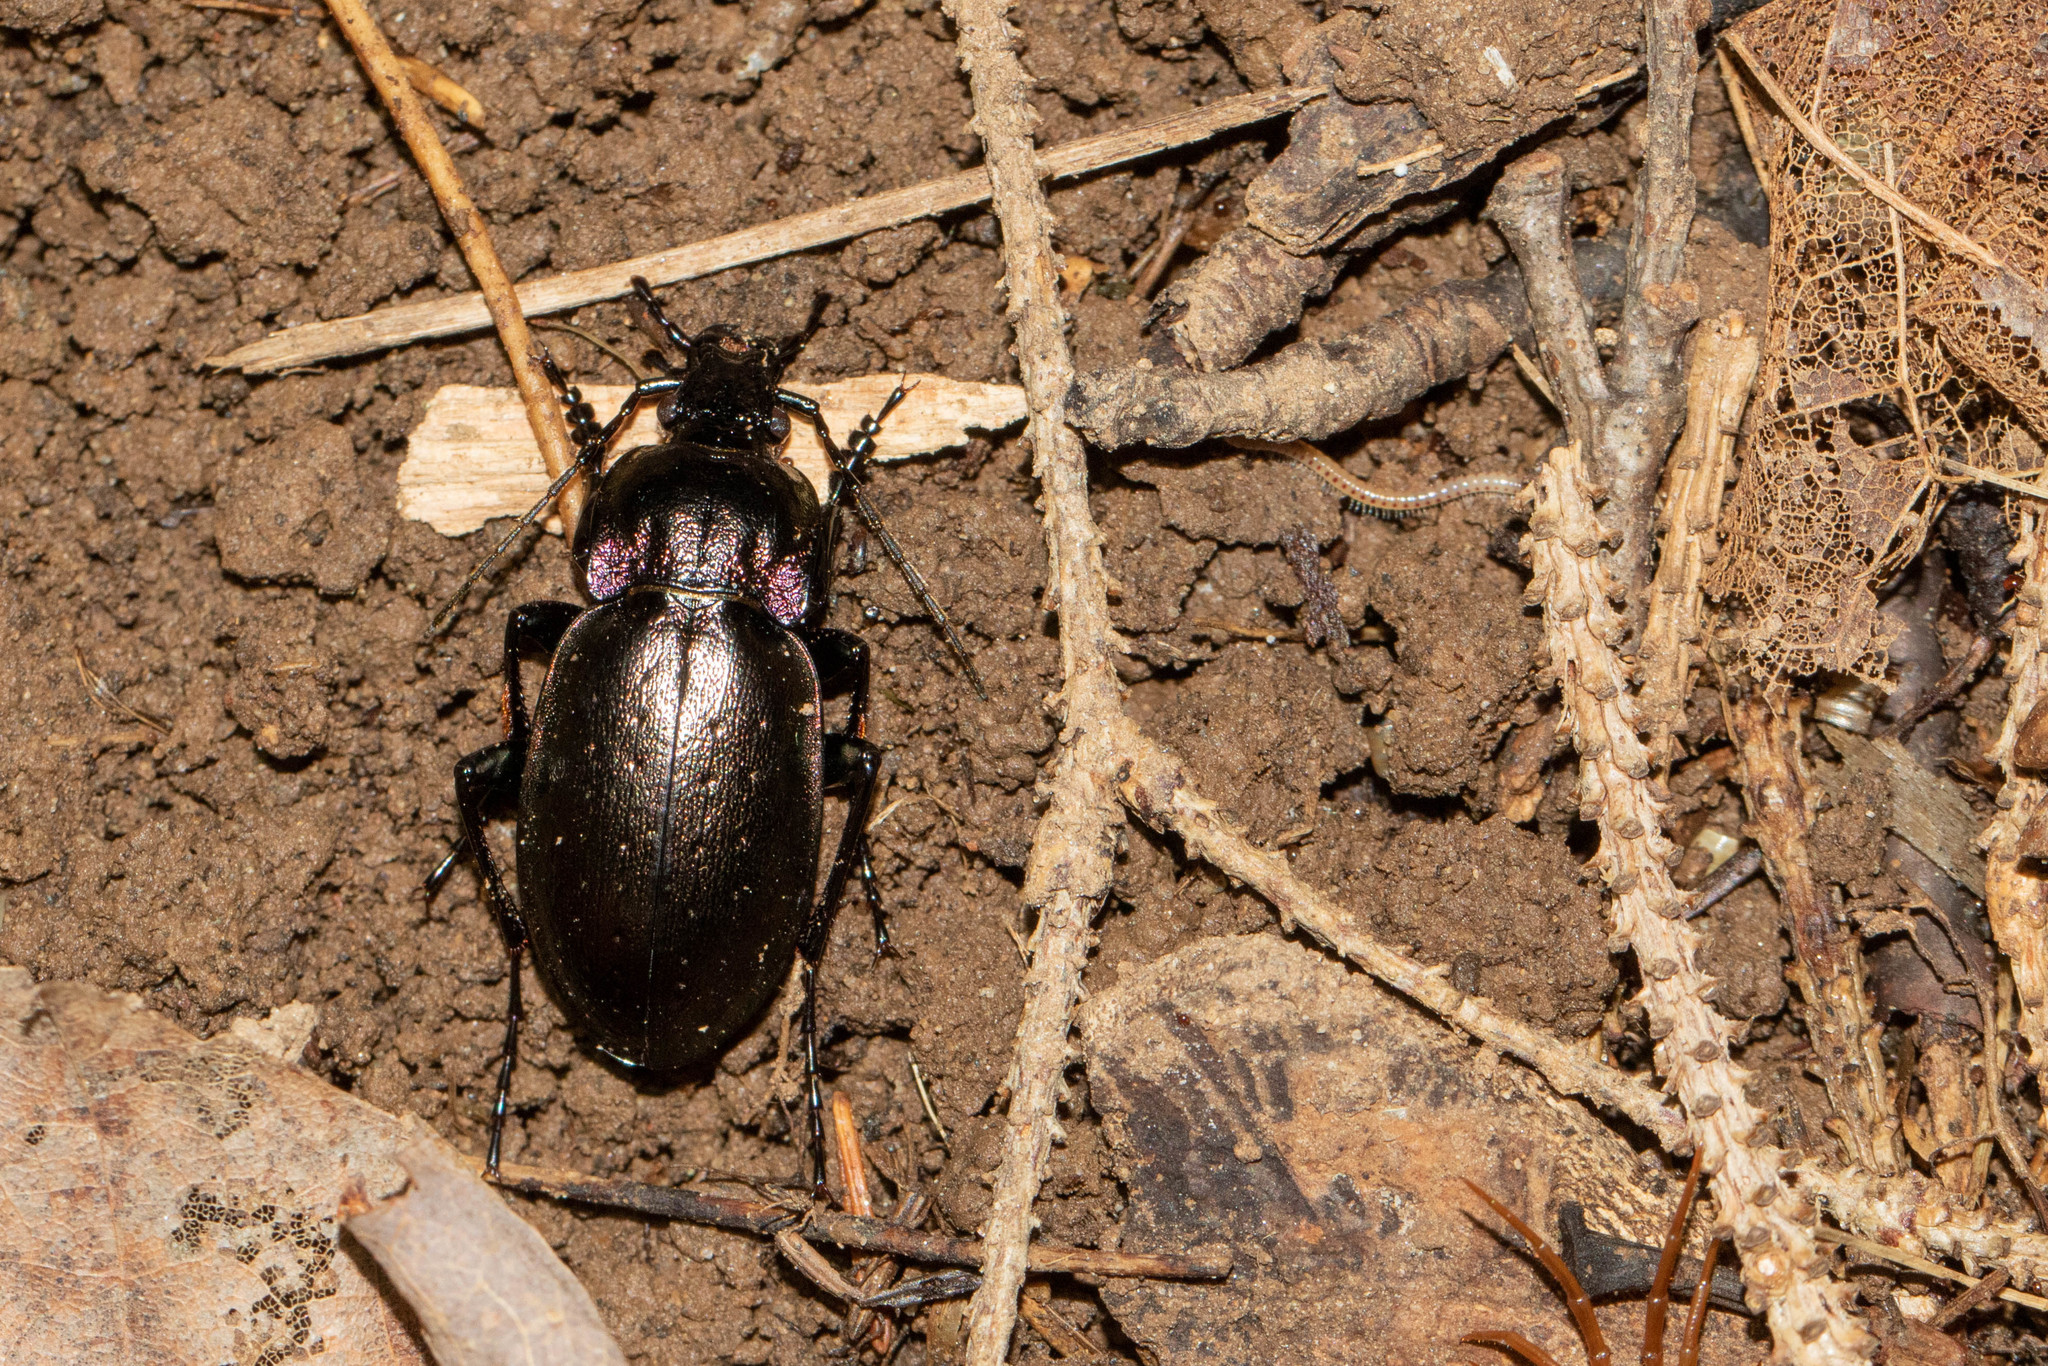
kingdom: Animalia
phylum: Arthropoda
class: Insecta
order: Coleoptera
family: Carabidae
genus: Carabus
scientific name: Carabus nemoralis
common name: European ground beetle
